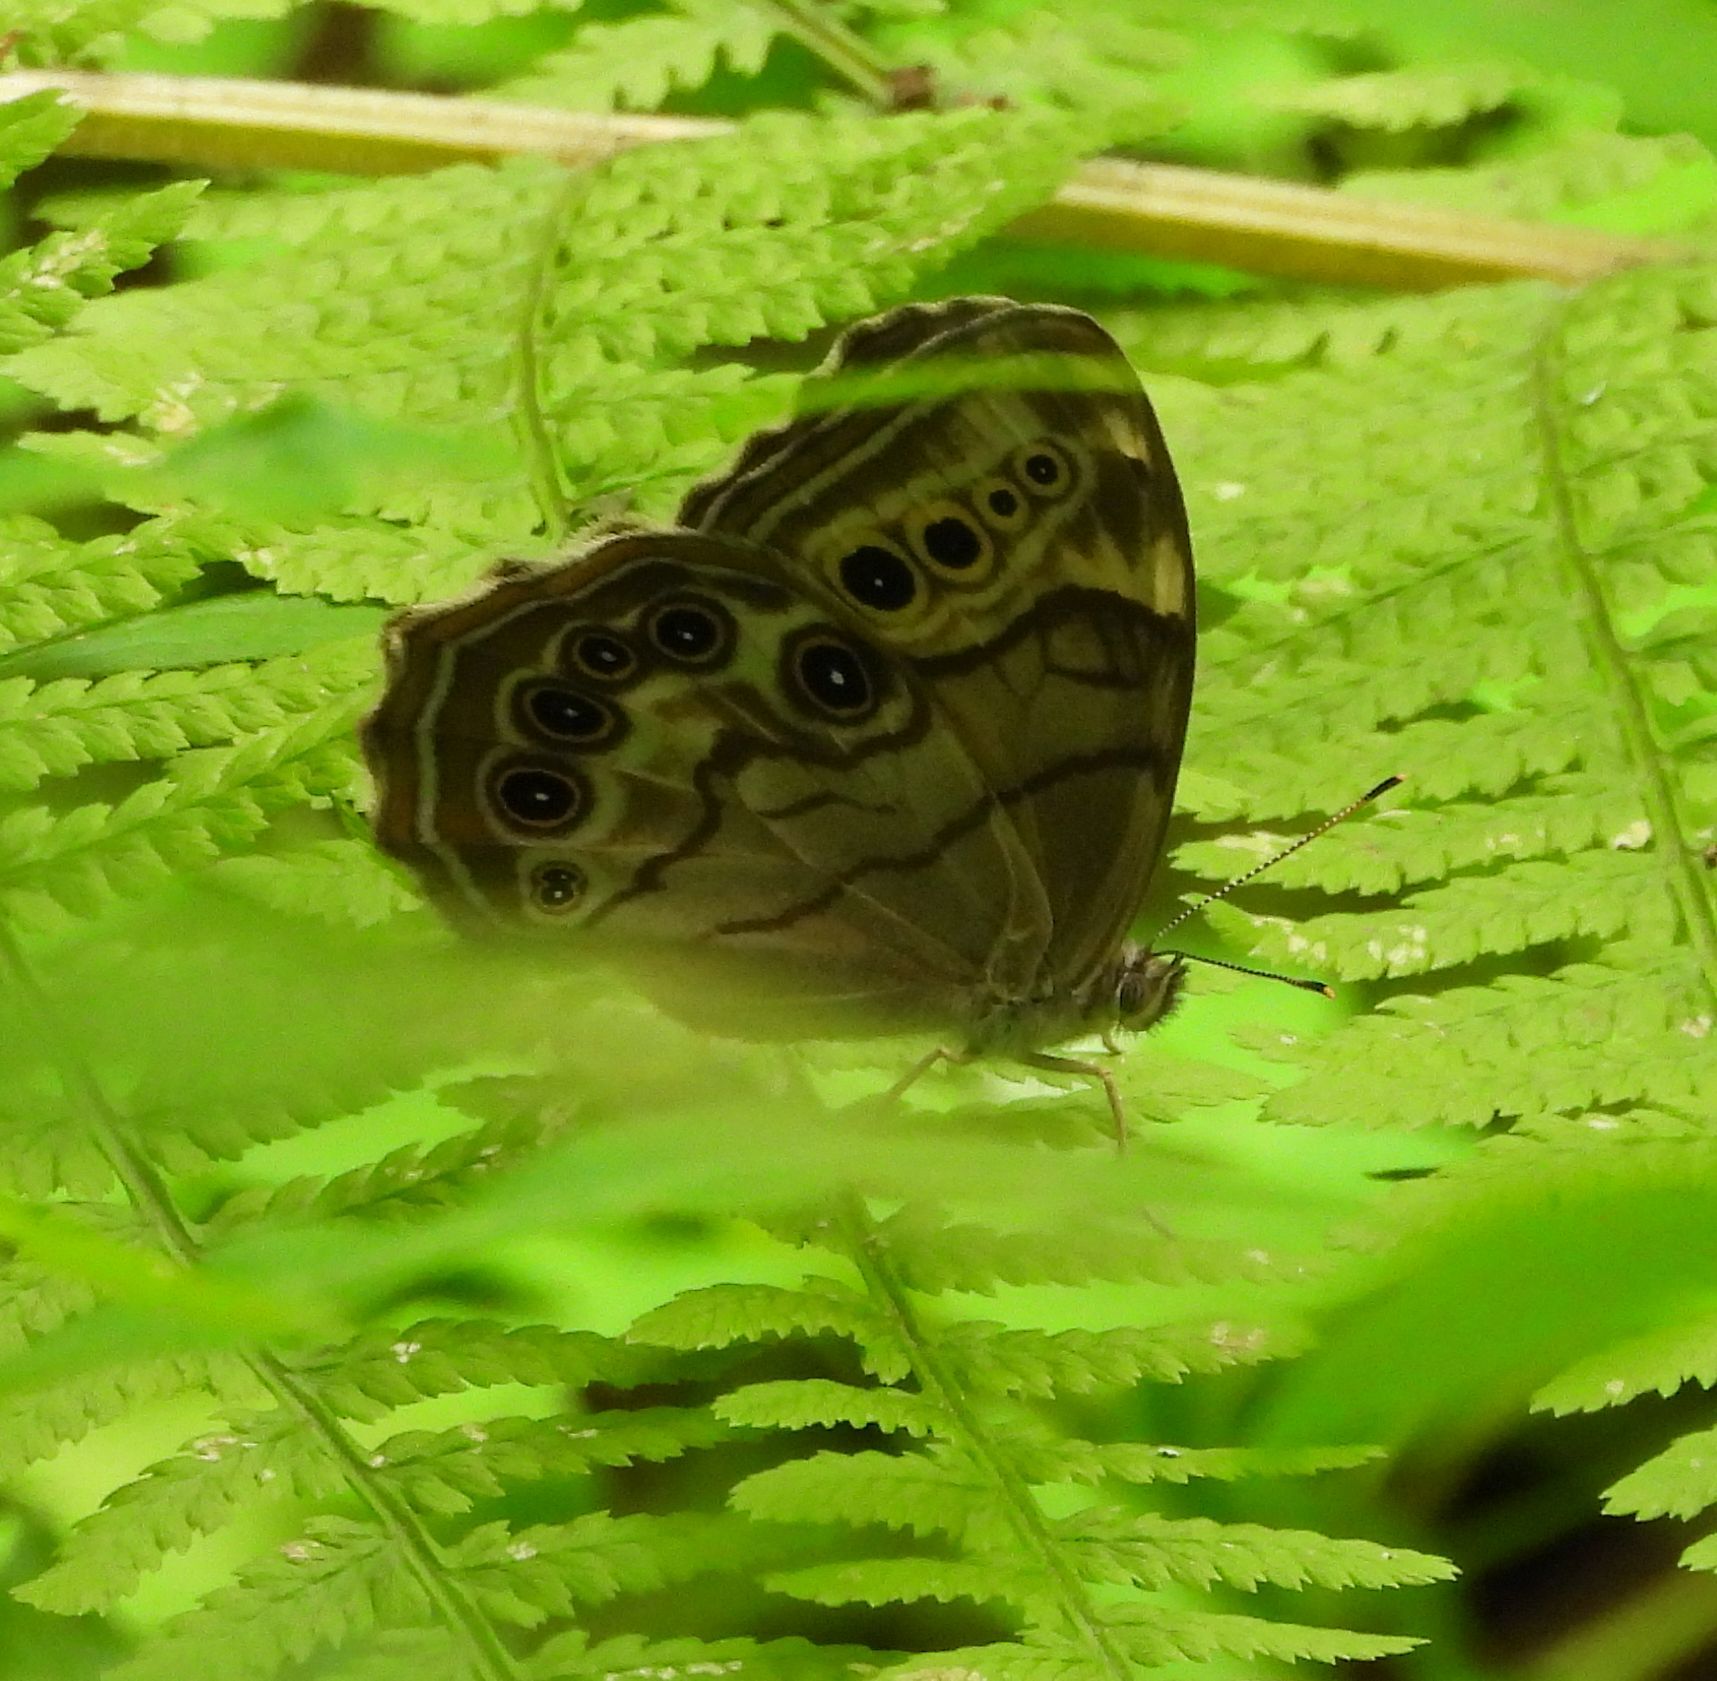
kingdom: Animalia
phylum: Arthropoda
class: Insecta
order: Lepidoptera
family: Nymphalidae
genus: Lethe
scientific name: Lethe anthedon
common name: Northern pearly-eye
